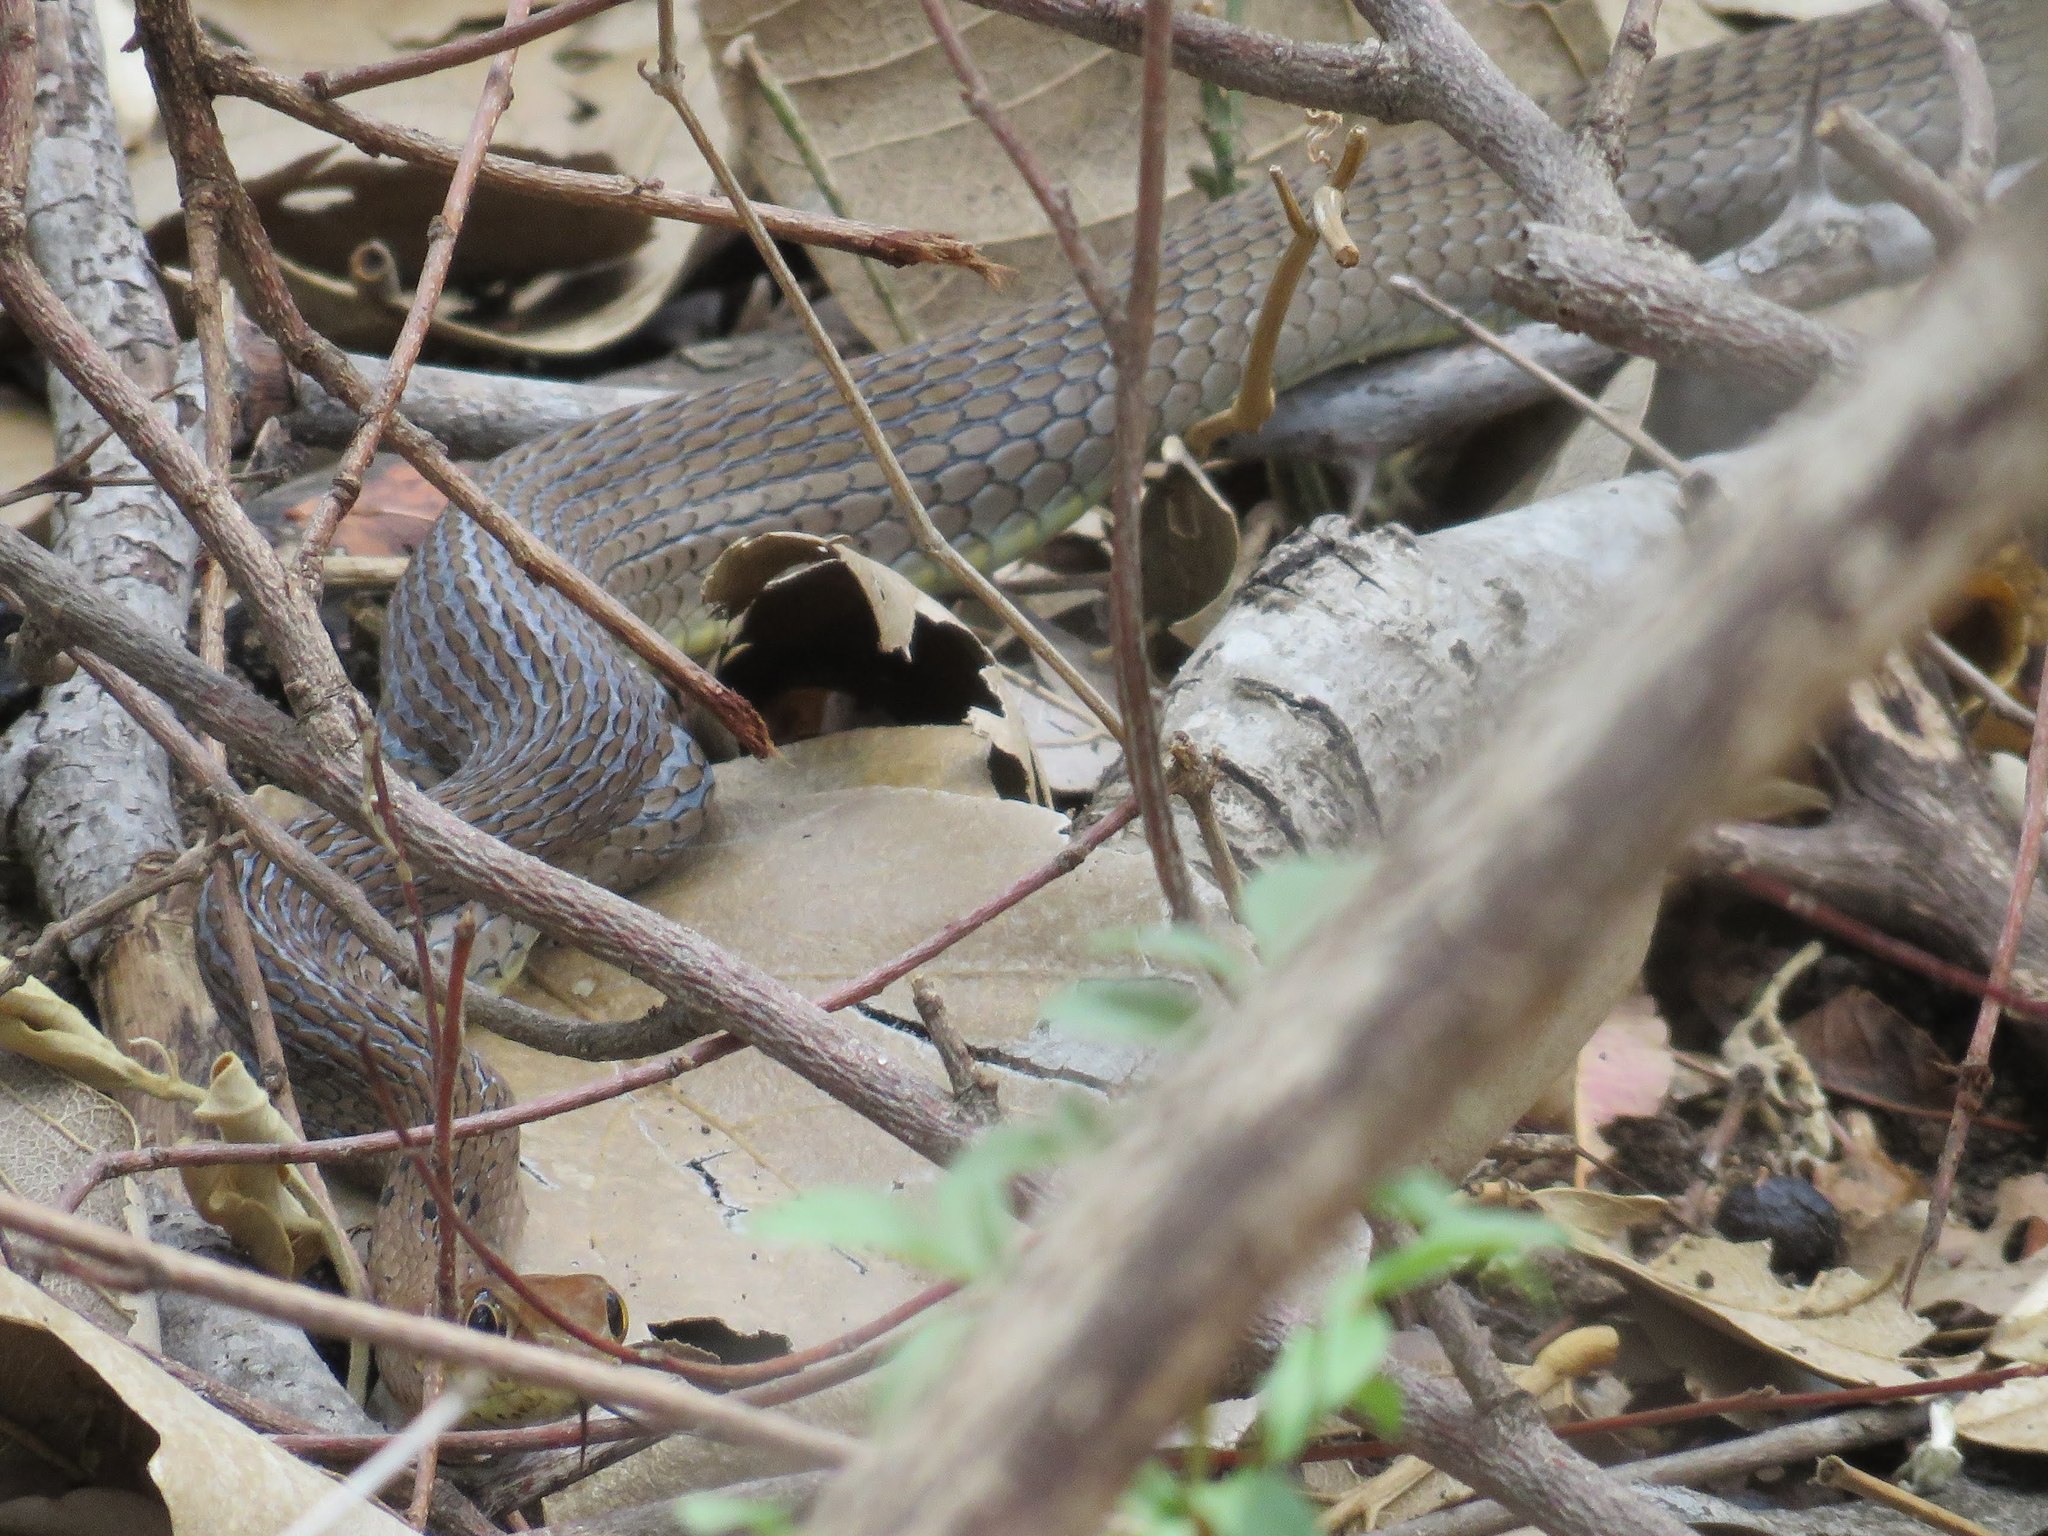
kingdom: Animalia
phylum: Chordata
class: Squamata
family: Psammophiidae
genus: Psammophis
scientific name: Psammophis mossambicus
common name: Olive grass snake
